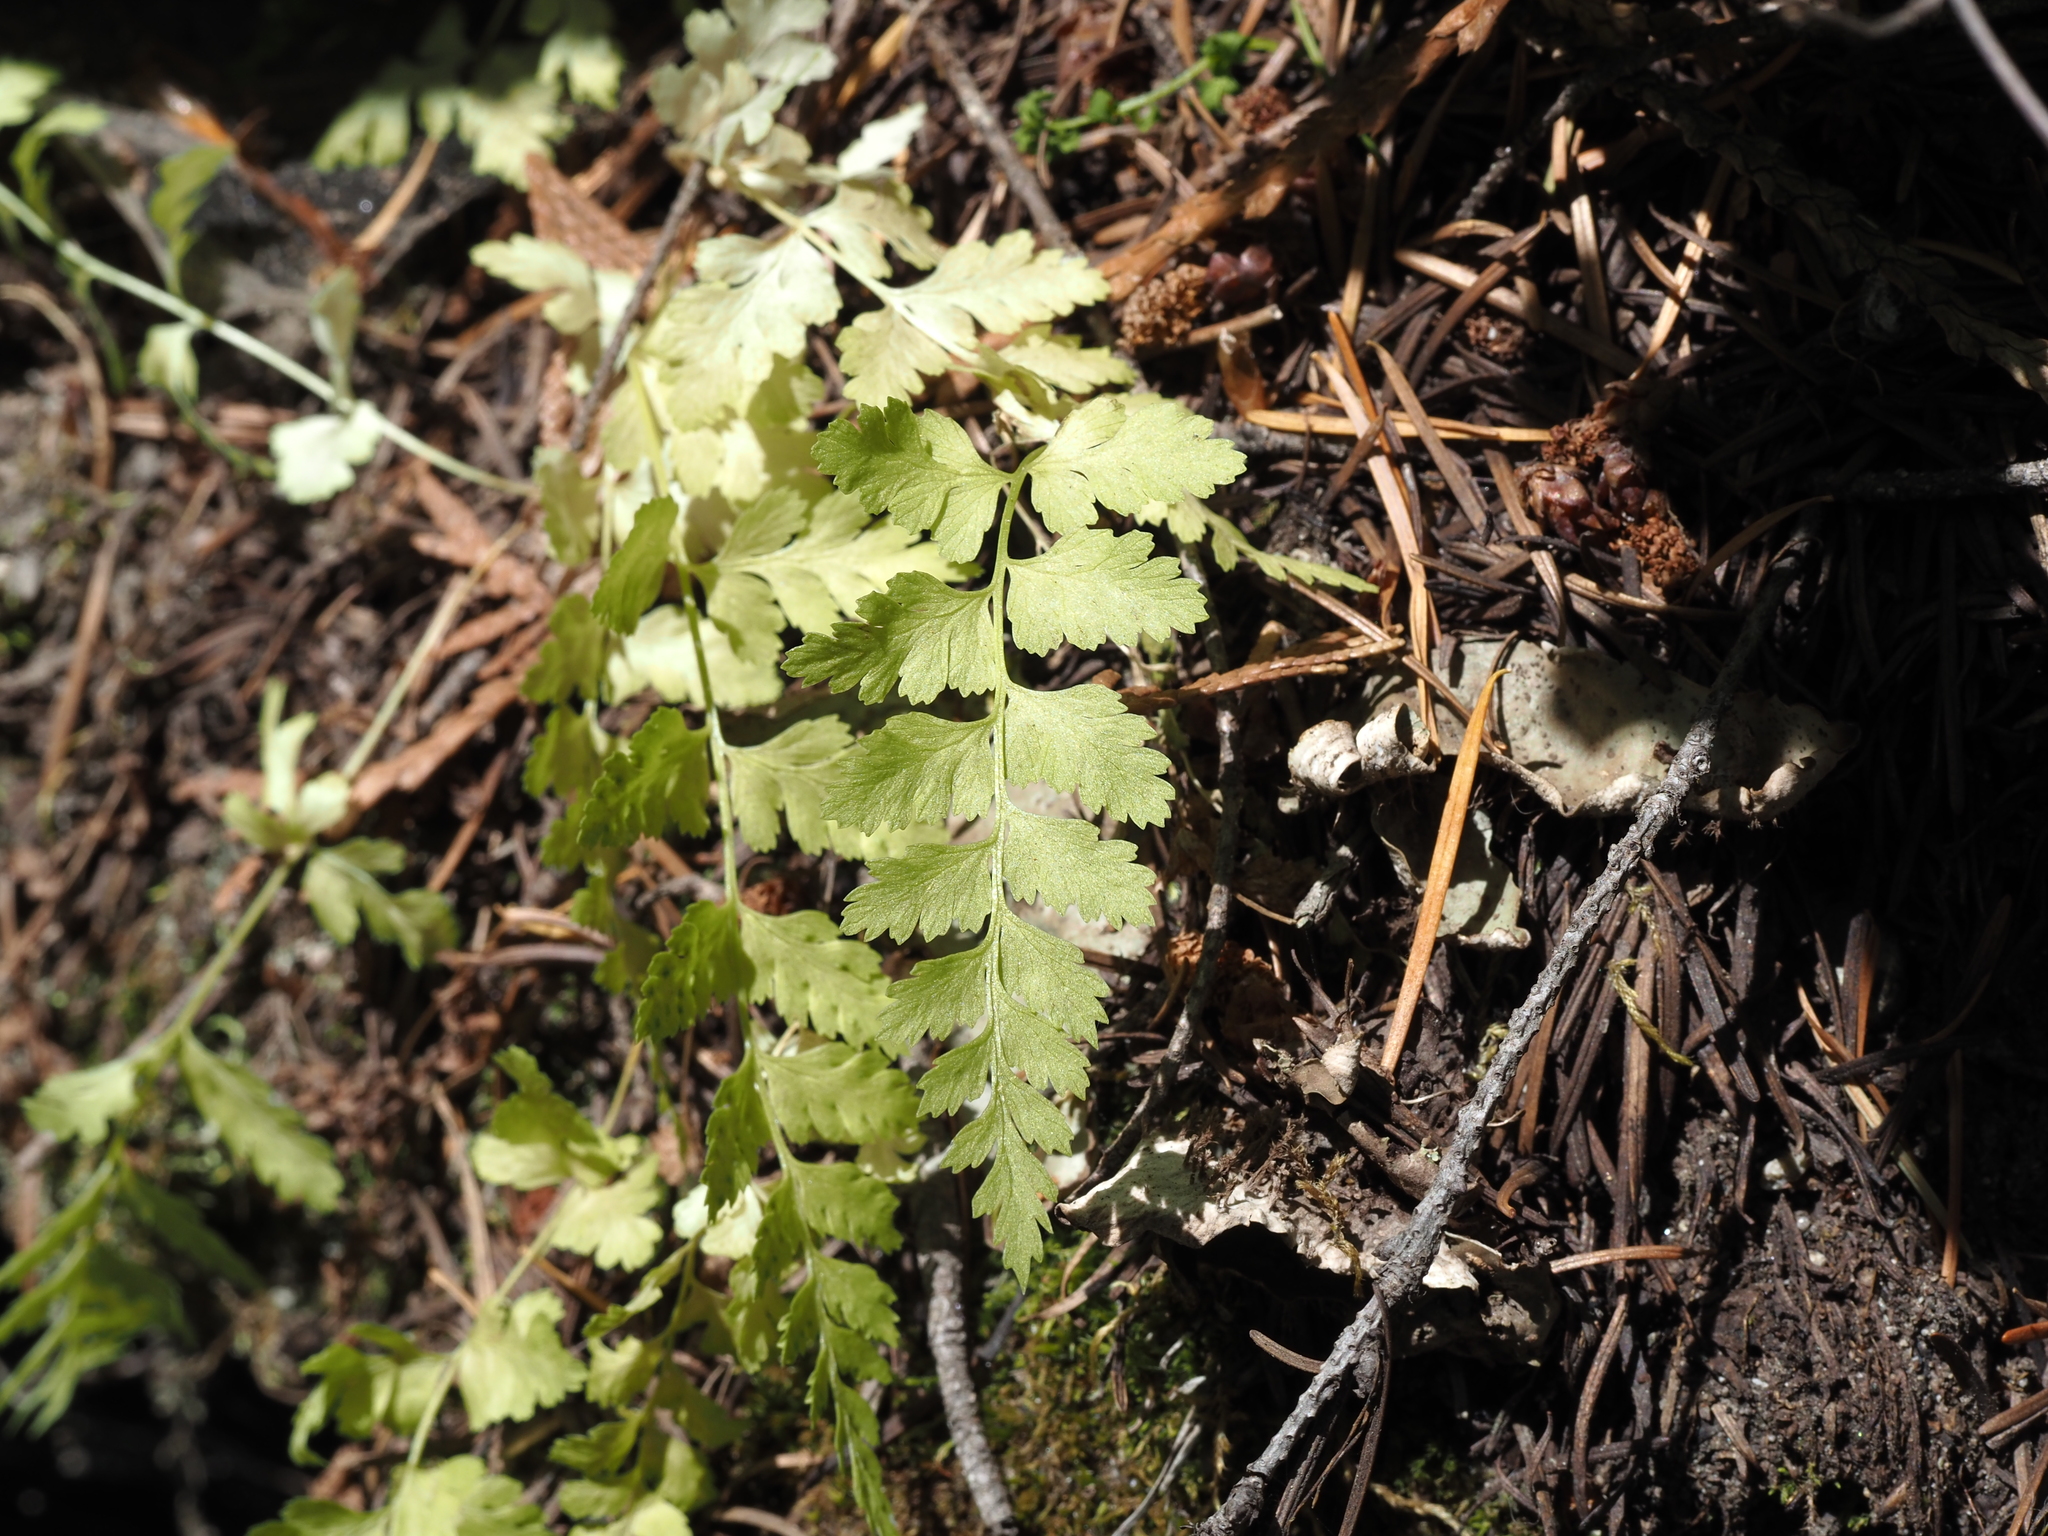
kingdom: Plantae
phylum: Tracheophyta
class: Polypodiopsida
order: Polypodiales
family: Cystopteridaceae
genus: Cystopteris
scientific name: Cystopteris fragilis
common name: Brittle bladder fern
